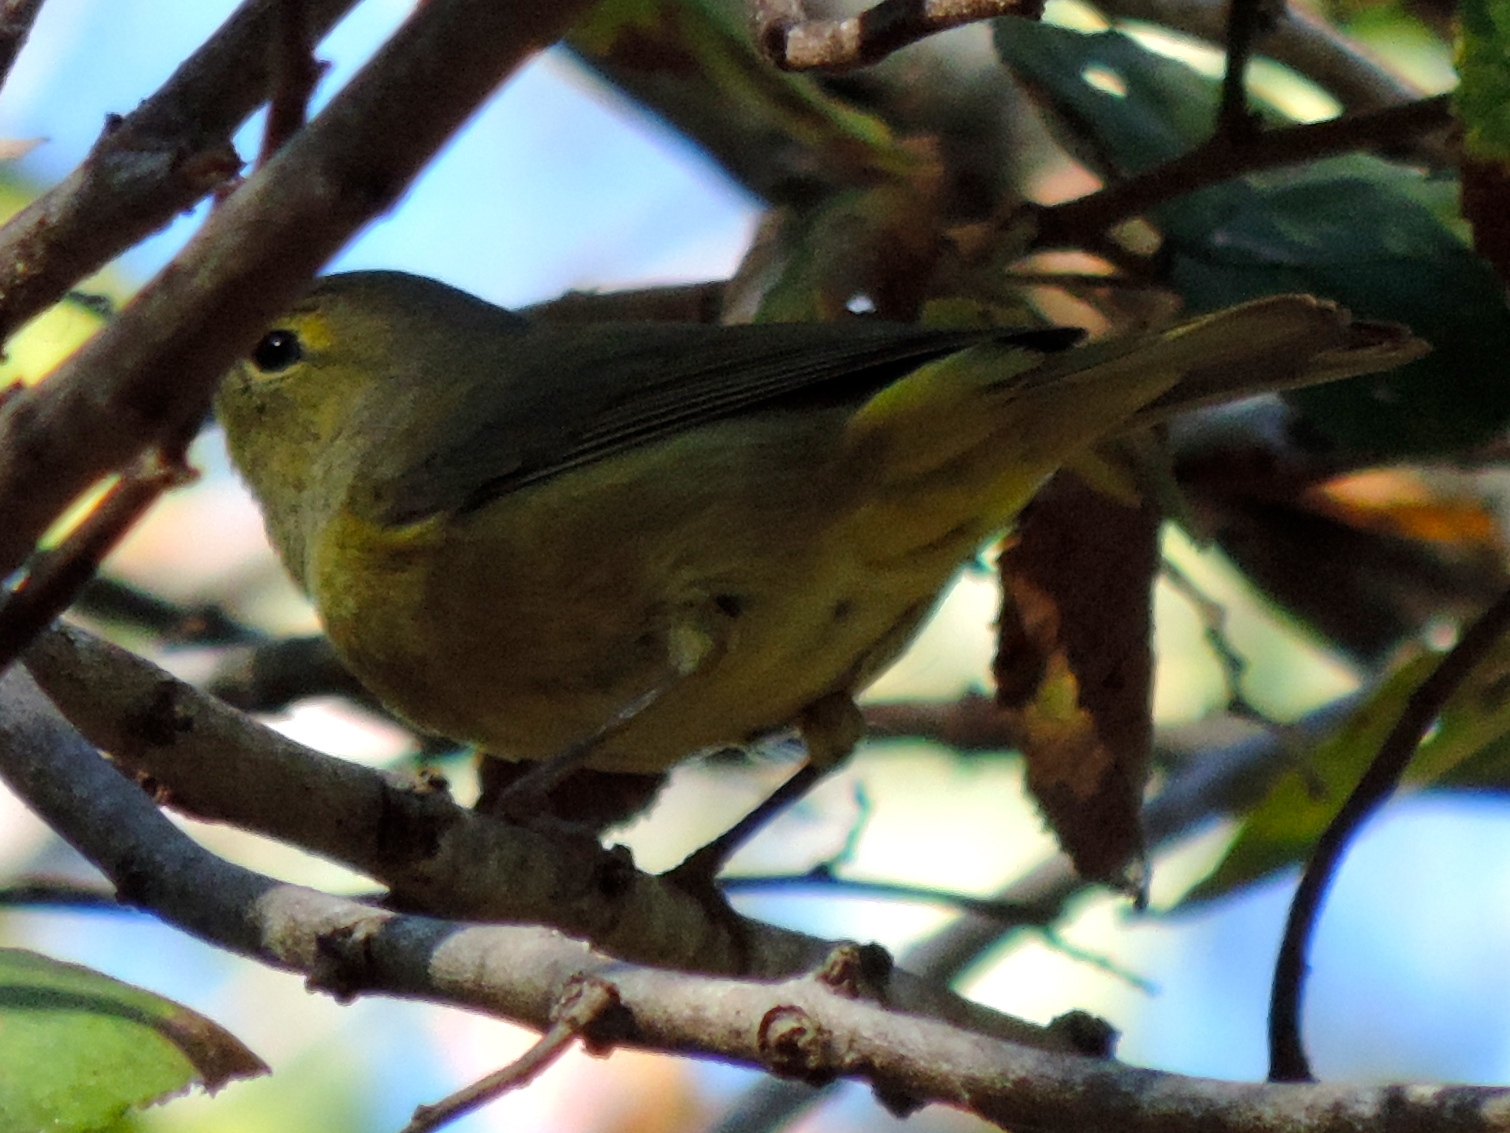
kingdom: Animalia
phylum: Chordata
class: Aves
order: Passeriformes
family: Parulidae
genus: Leiothlypis
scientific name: Leiothlypis celata
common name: Orange-crowned warbler
